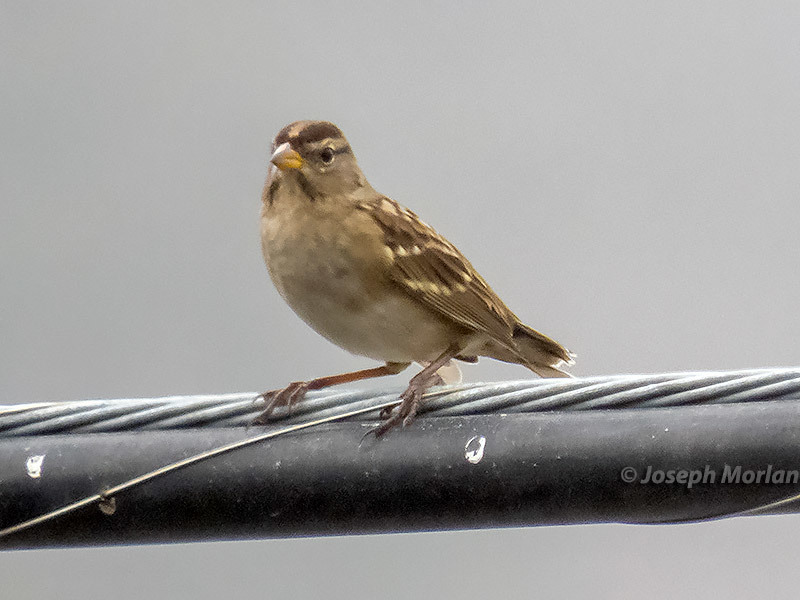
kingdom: Animalia
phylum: Chordata
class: Aves
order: Passeriformes
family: Passerellidae
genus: Zonotrichia
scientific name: Zonotrichia leucophrys
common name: White-crowned sparrow
